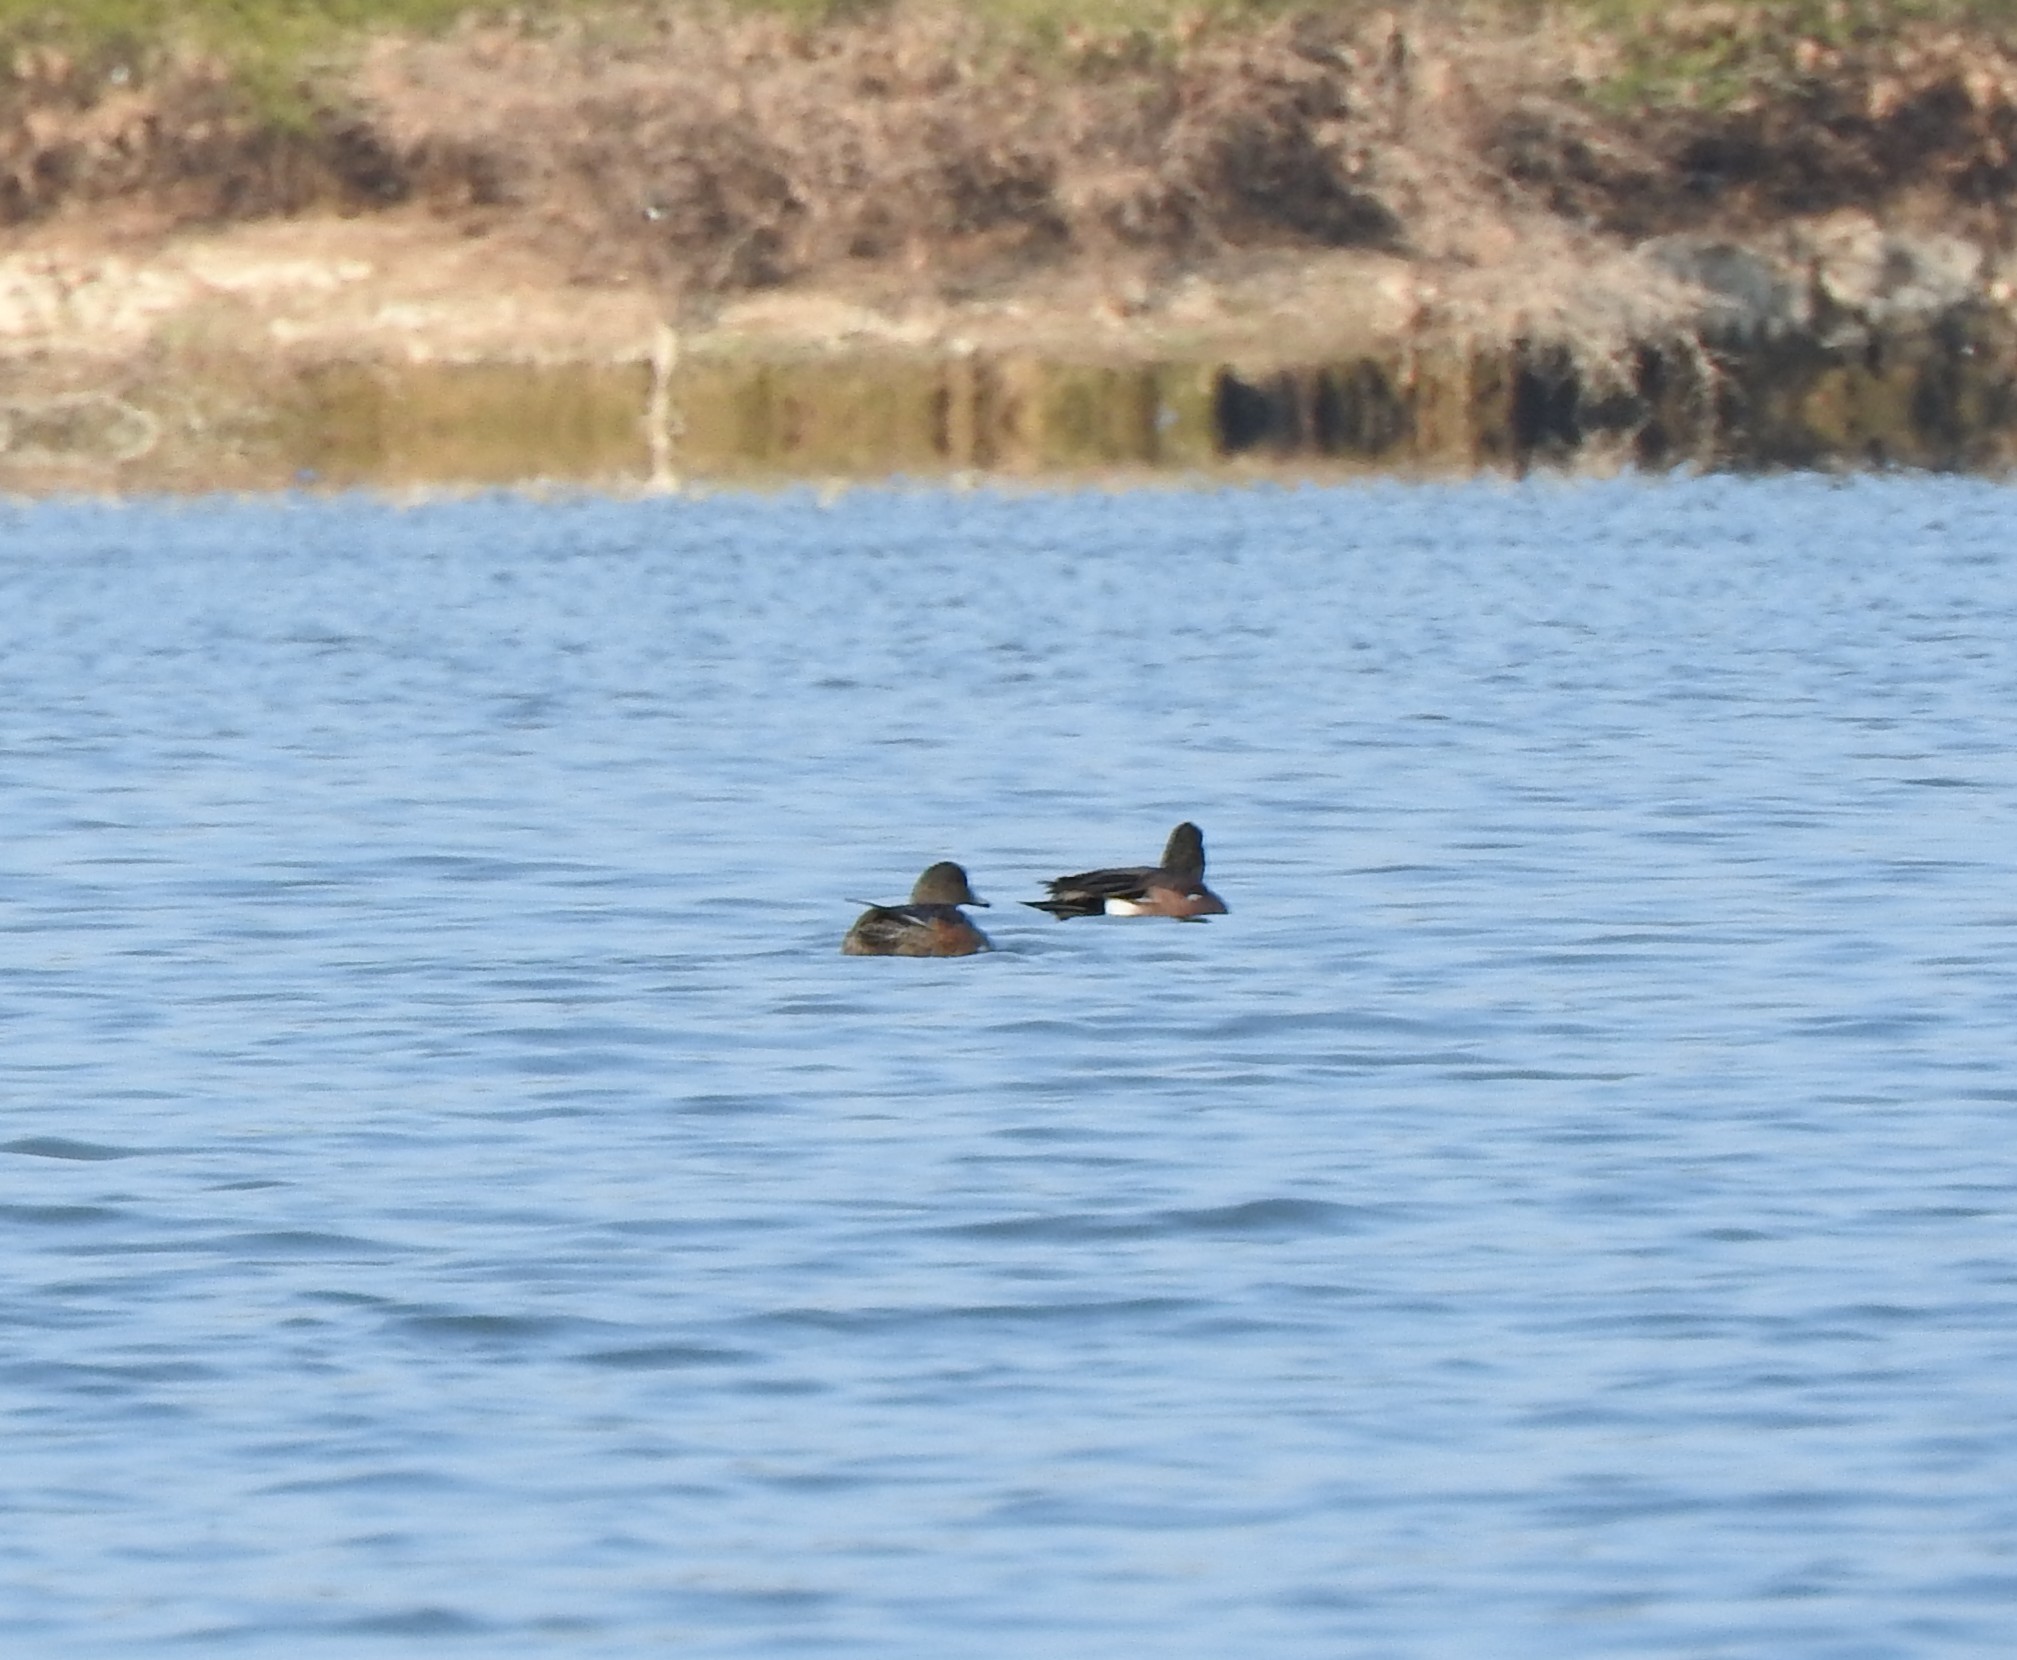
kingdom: Animalia
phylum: Chordata
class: Aves
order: Anseriformes
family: Anatidae
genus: Mareca
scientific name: Mareca americana
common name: American wigeon
